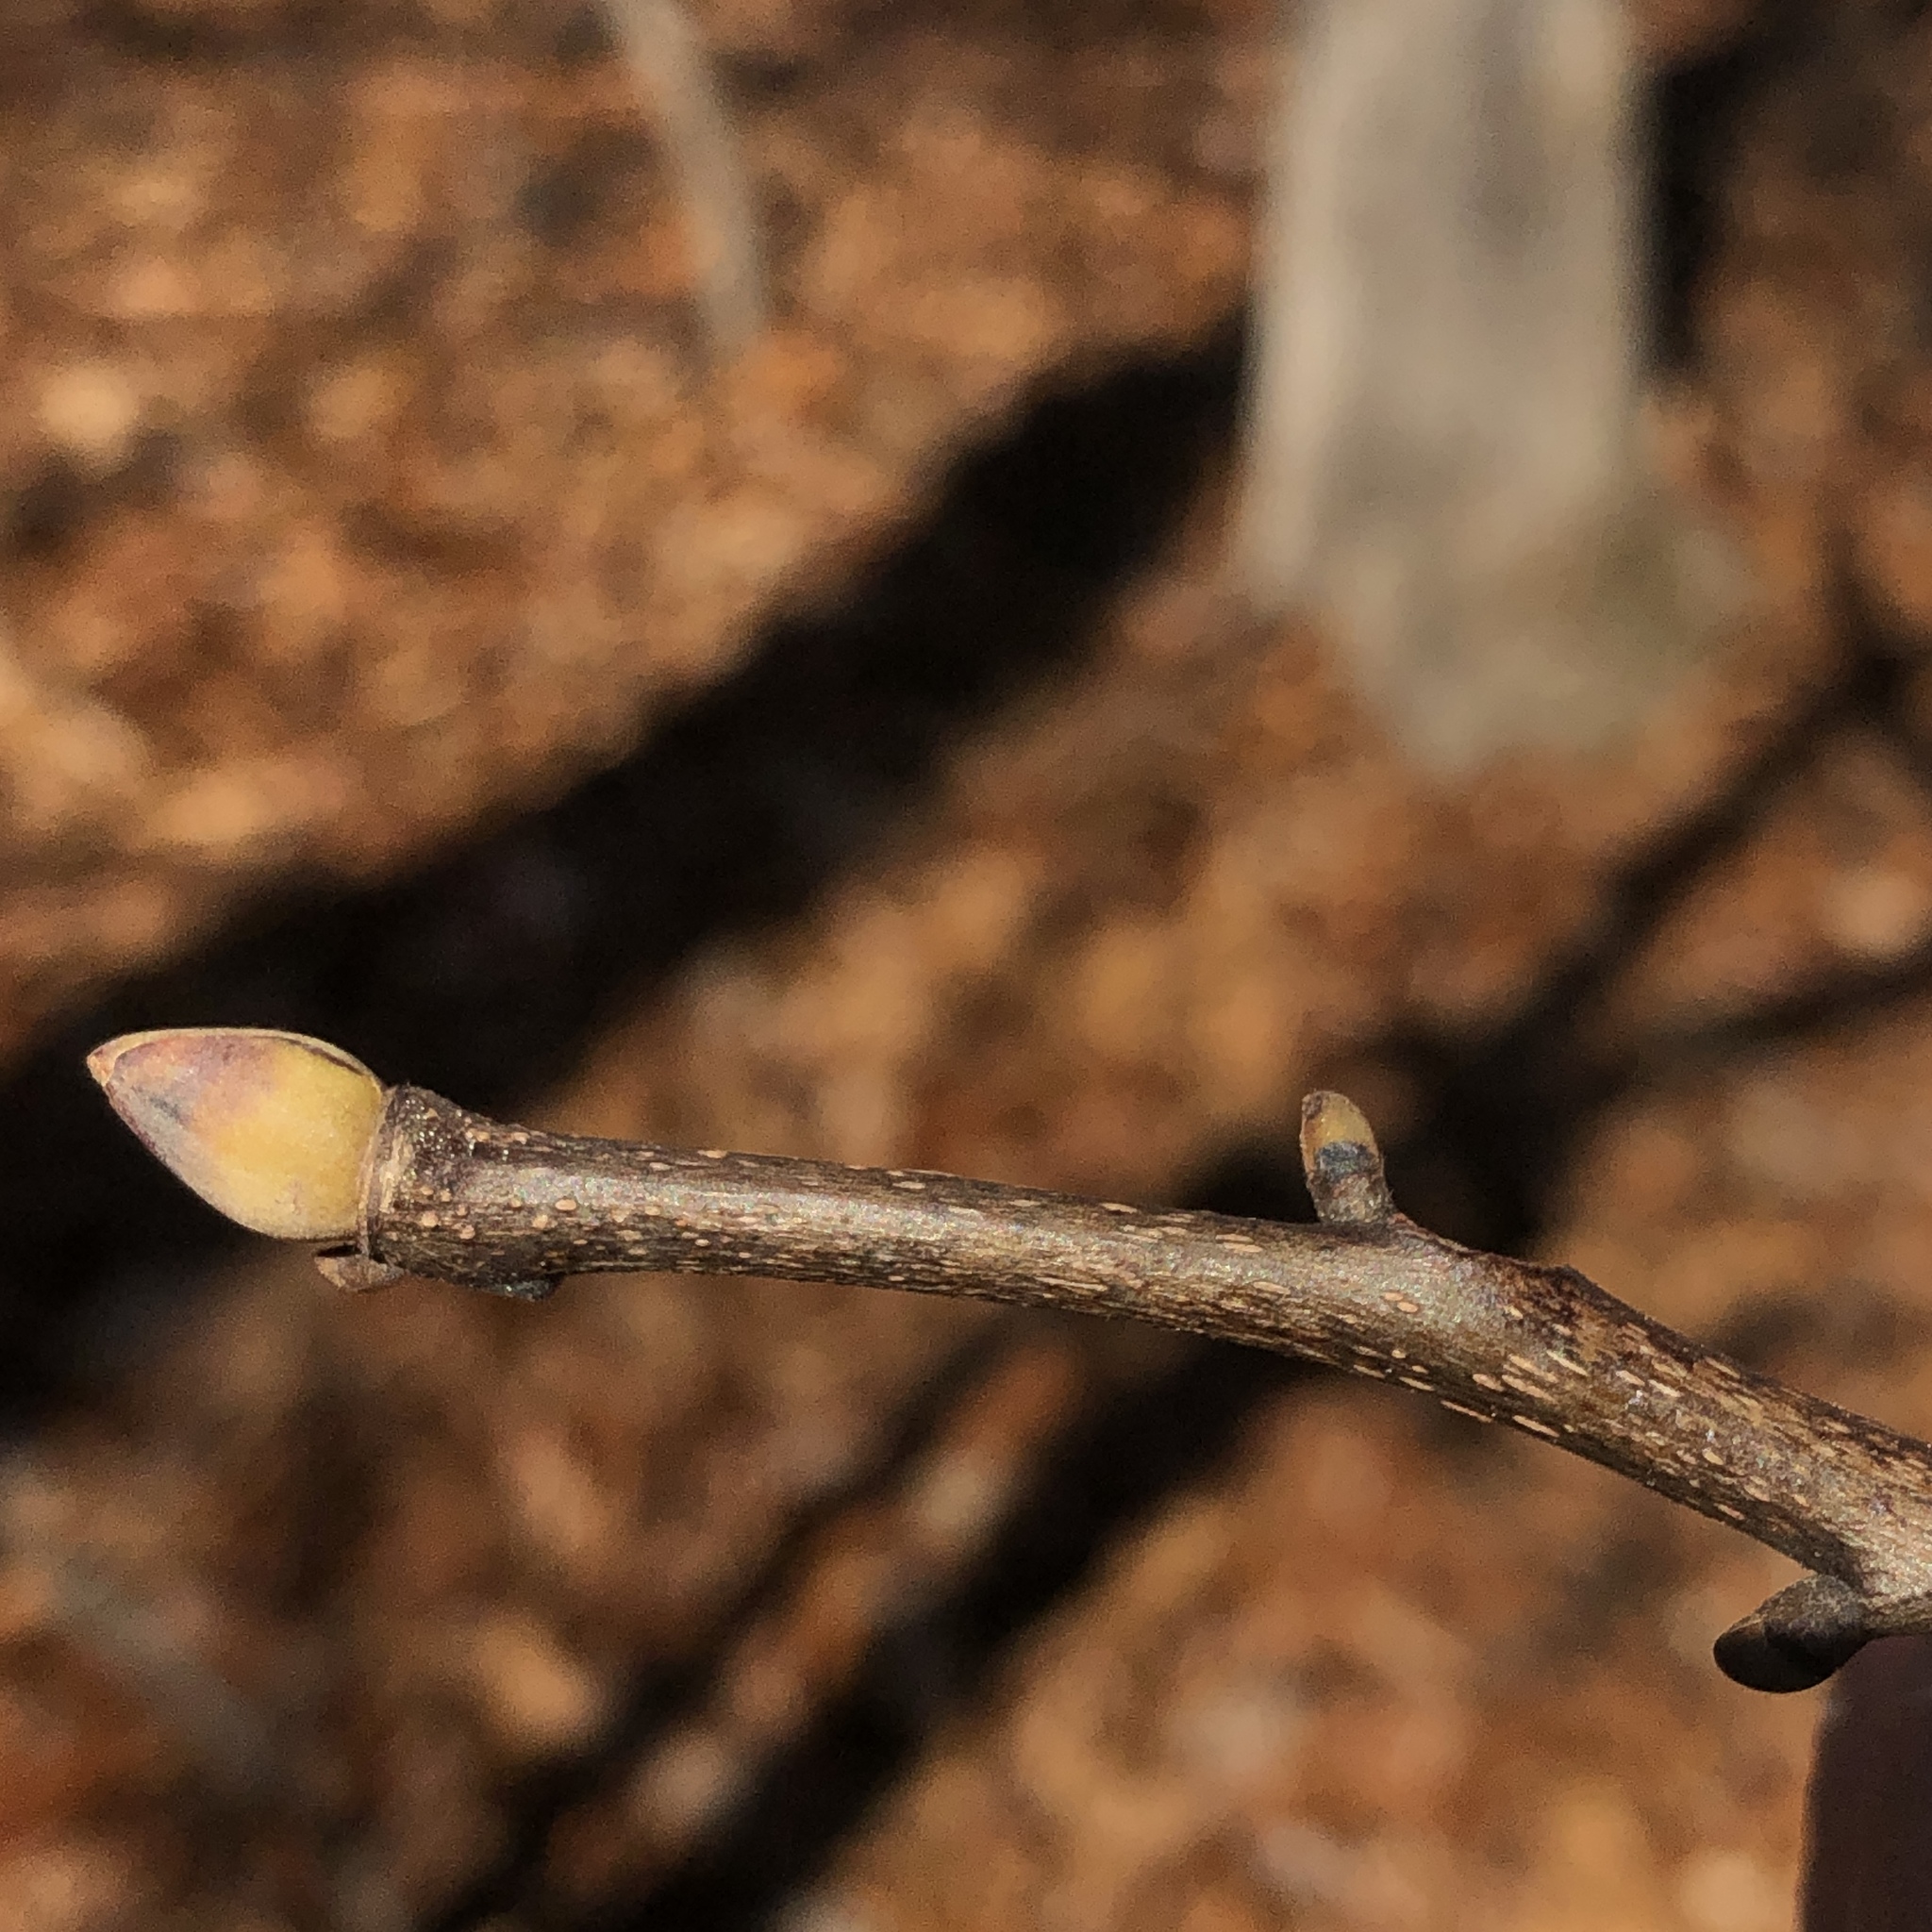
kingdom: Plantae
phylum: Tracheophyta
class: Magnoliopsida
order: Fagales
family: Juglandaceae
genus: Carya
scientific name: Carya glabra
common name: Pignut hickory
